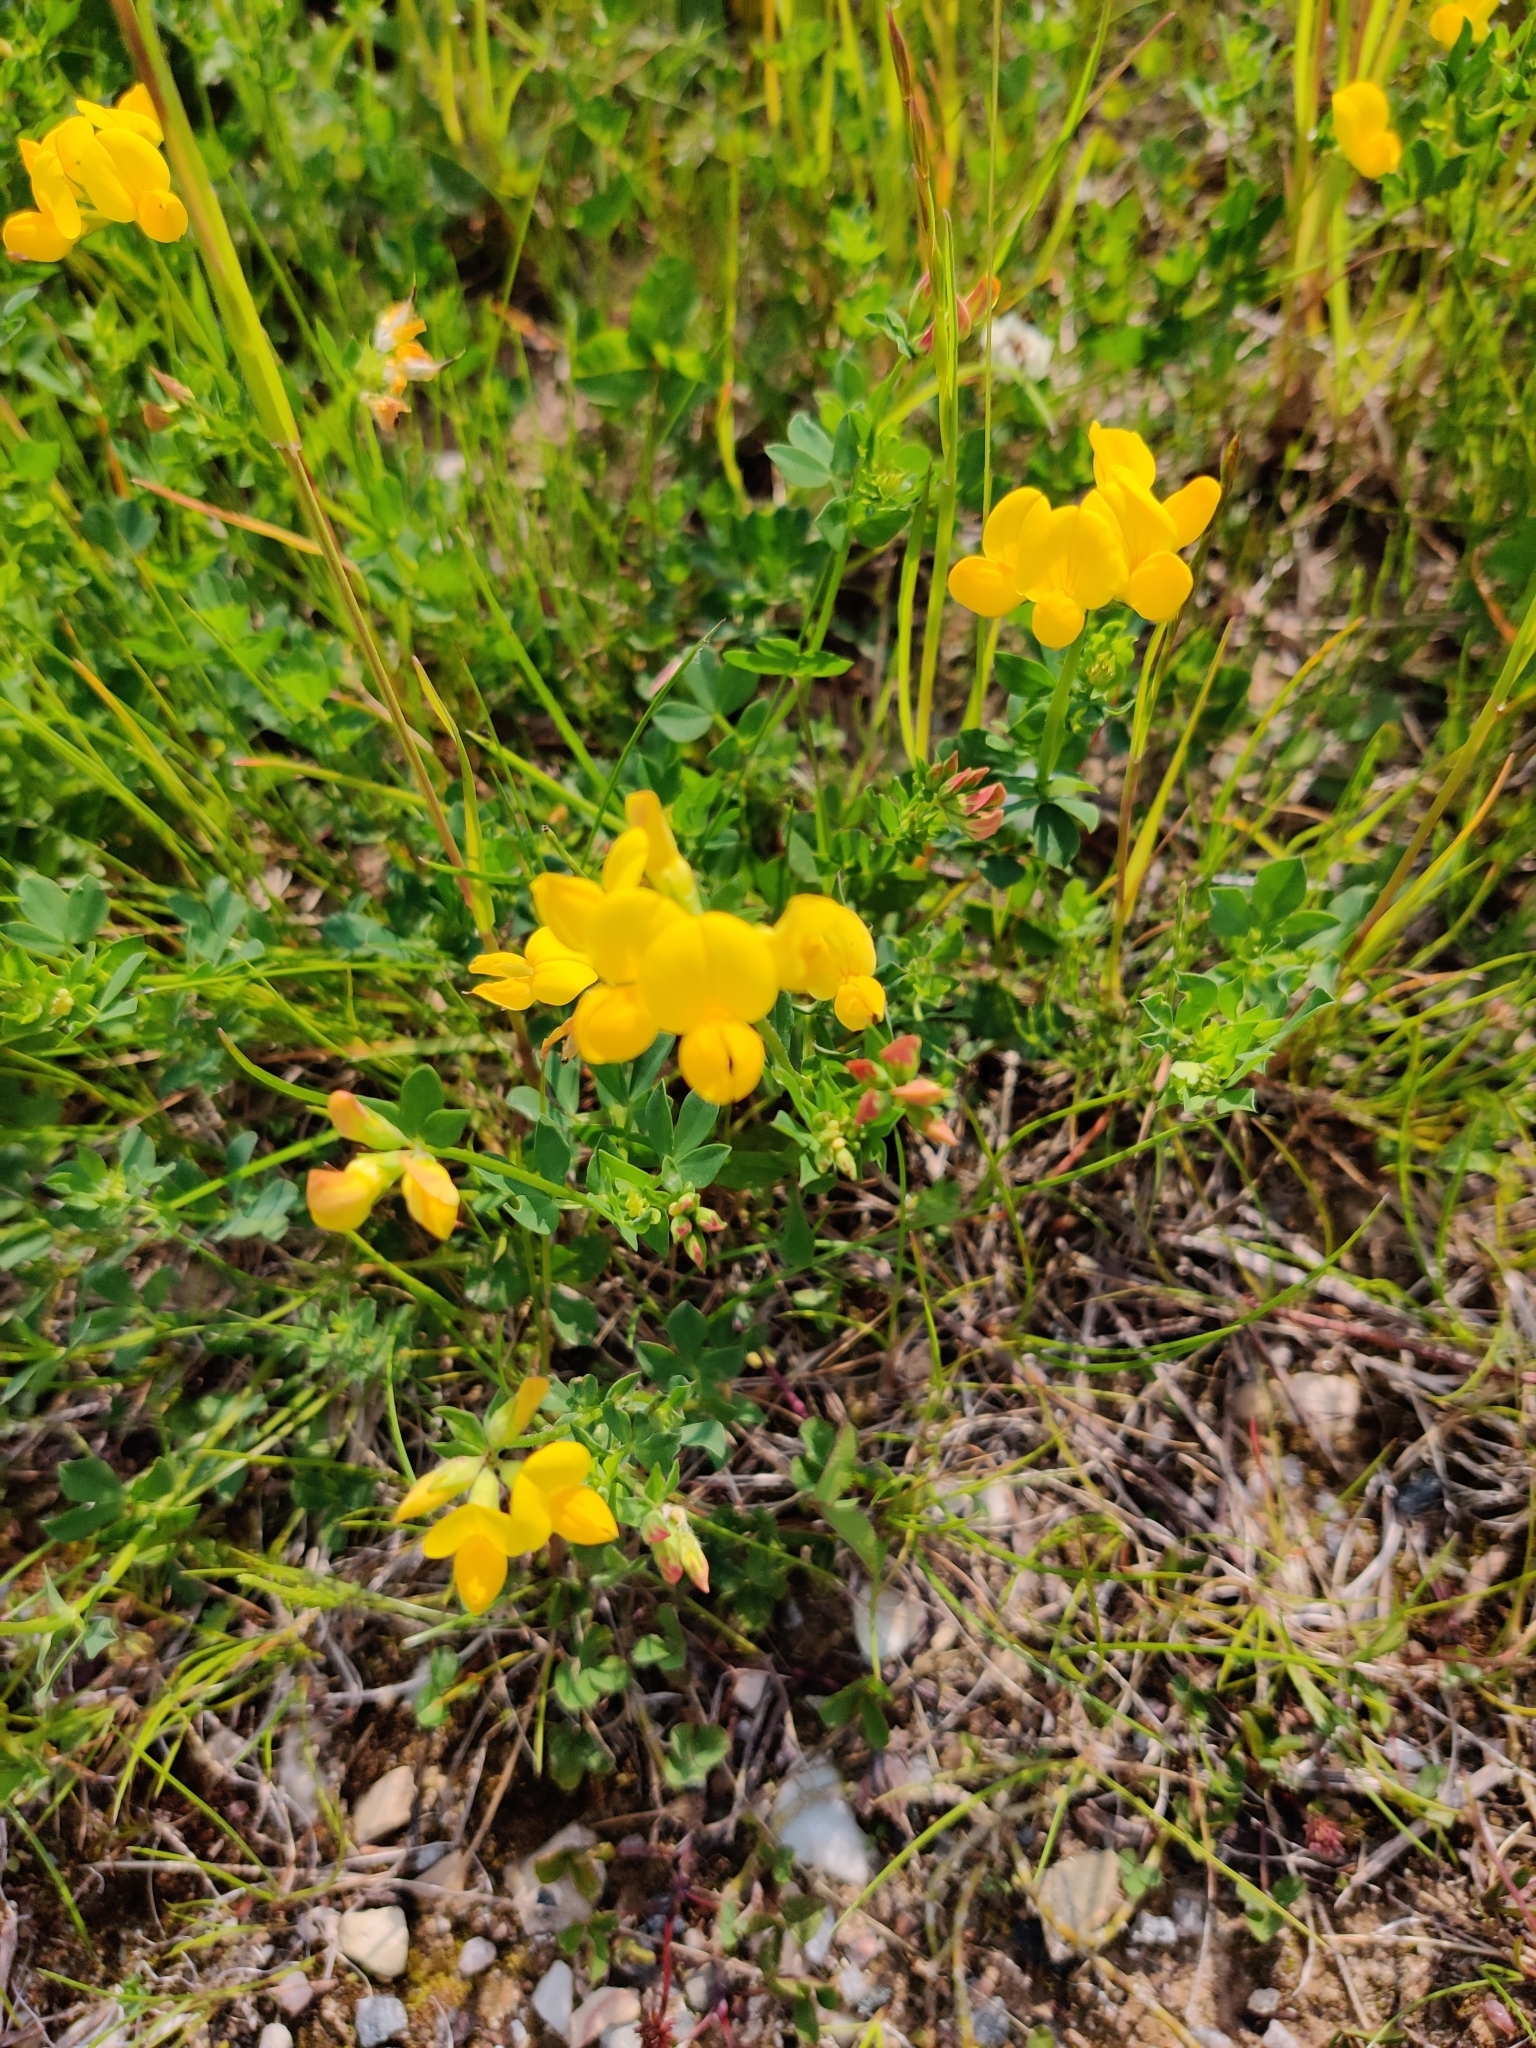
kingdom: Plantae
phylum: Tracheophyta
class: Magnoliopsida
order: Fabales
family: Fabaceae
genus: Lotus
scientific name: Lotus corniculatus
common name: Common bird's-foot-trefoil
